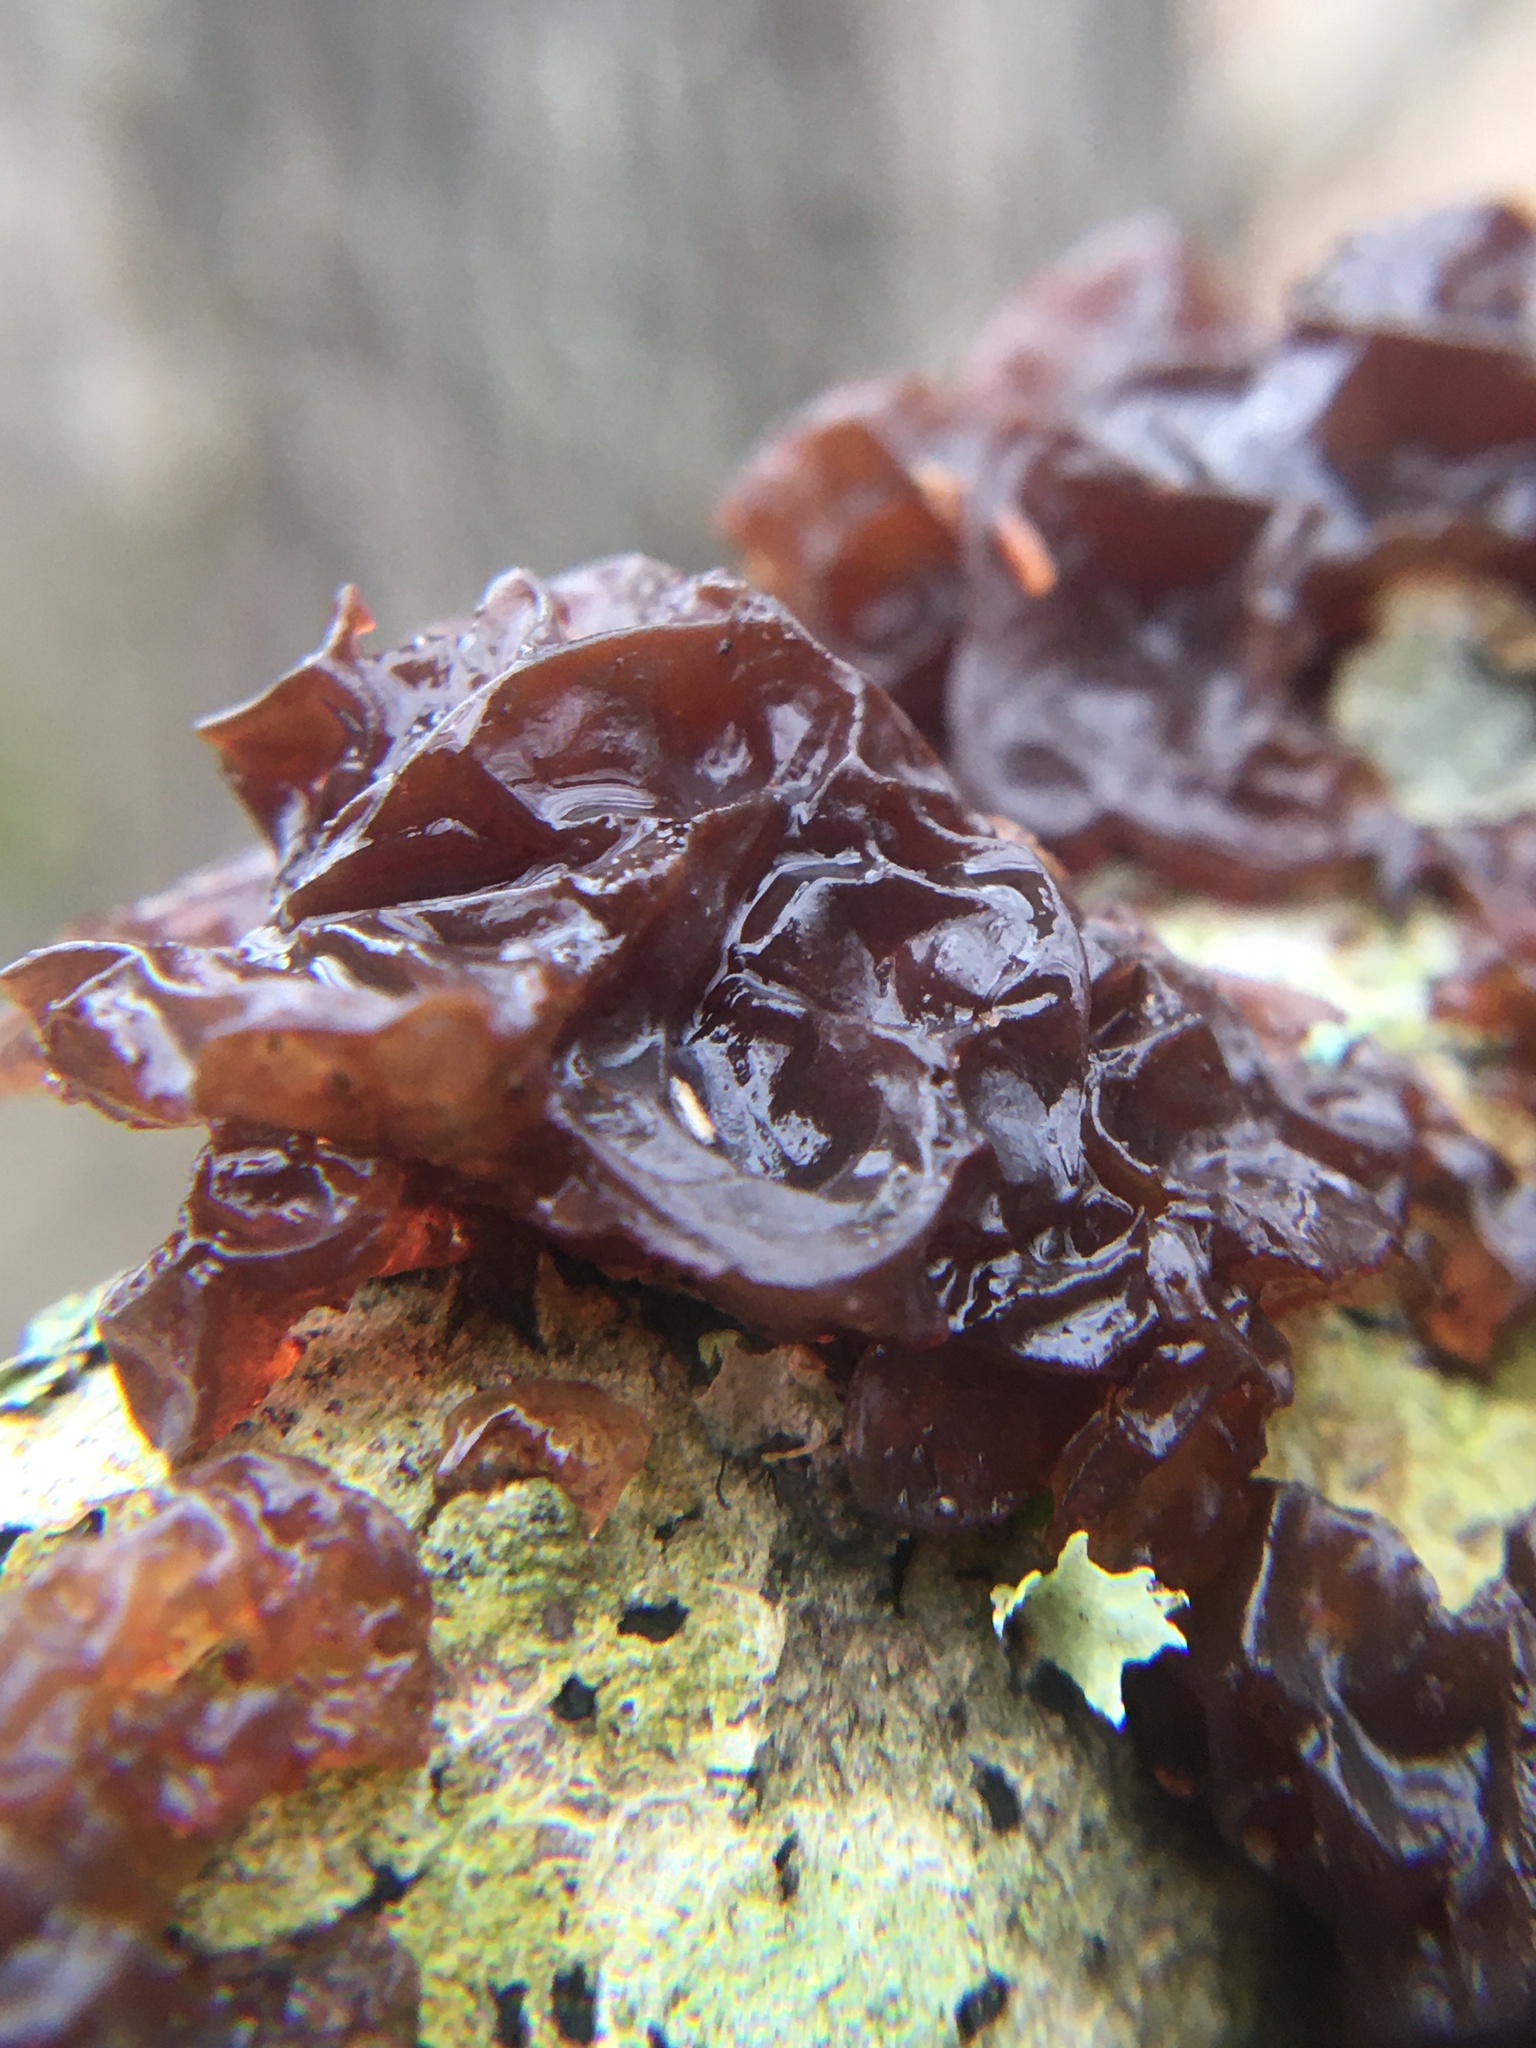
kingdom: Fungi
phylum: Basidiomycota
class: Agaricomycetes
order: Auriculariales
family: Auriculariaceae
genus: Exidia
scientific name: Exidia
